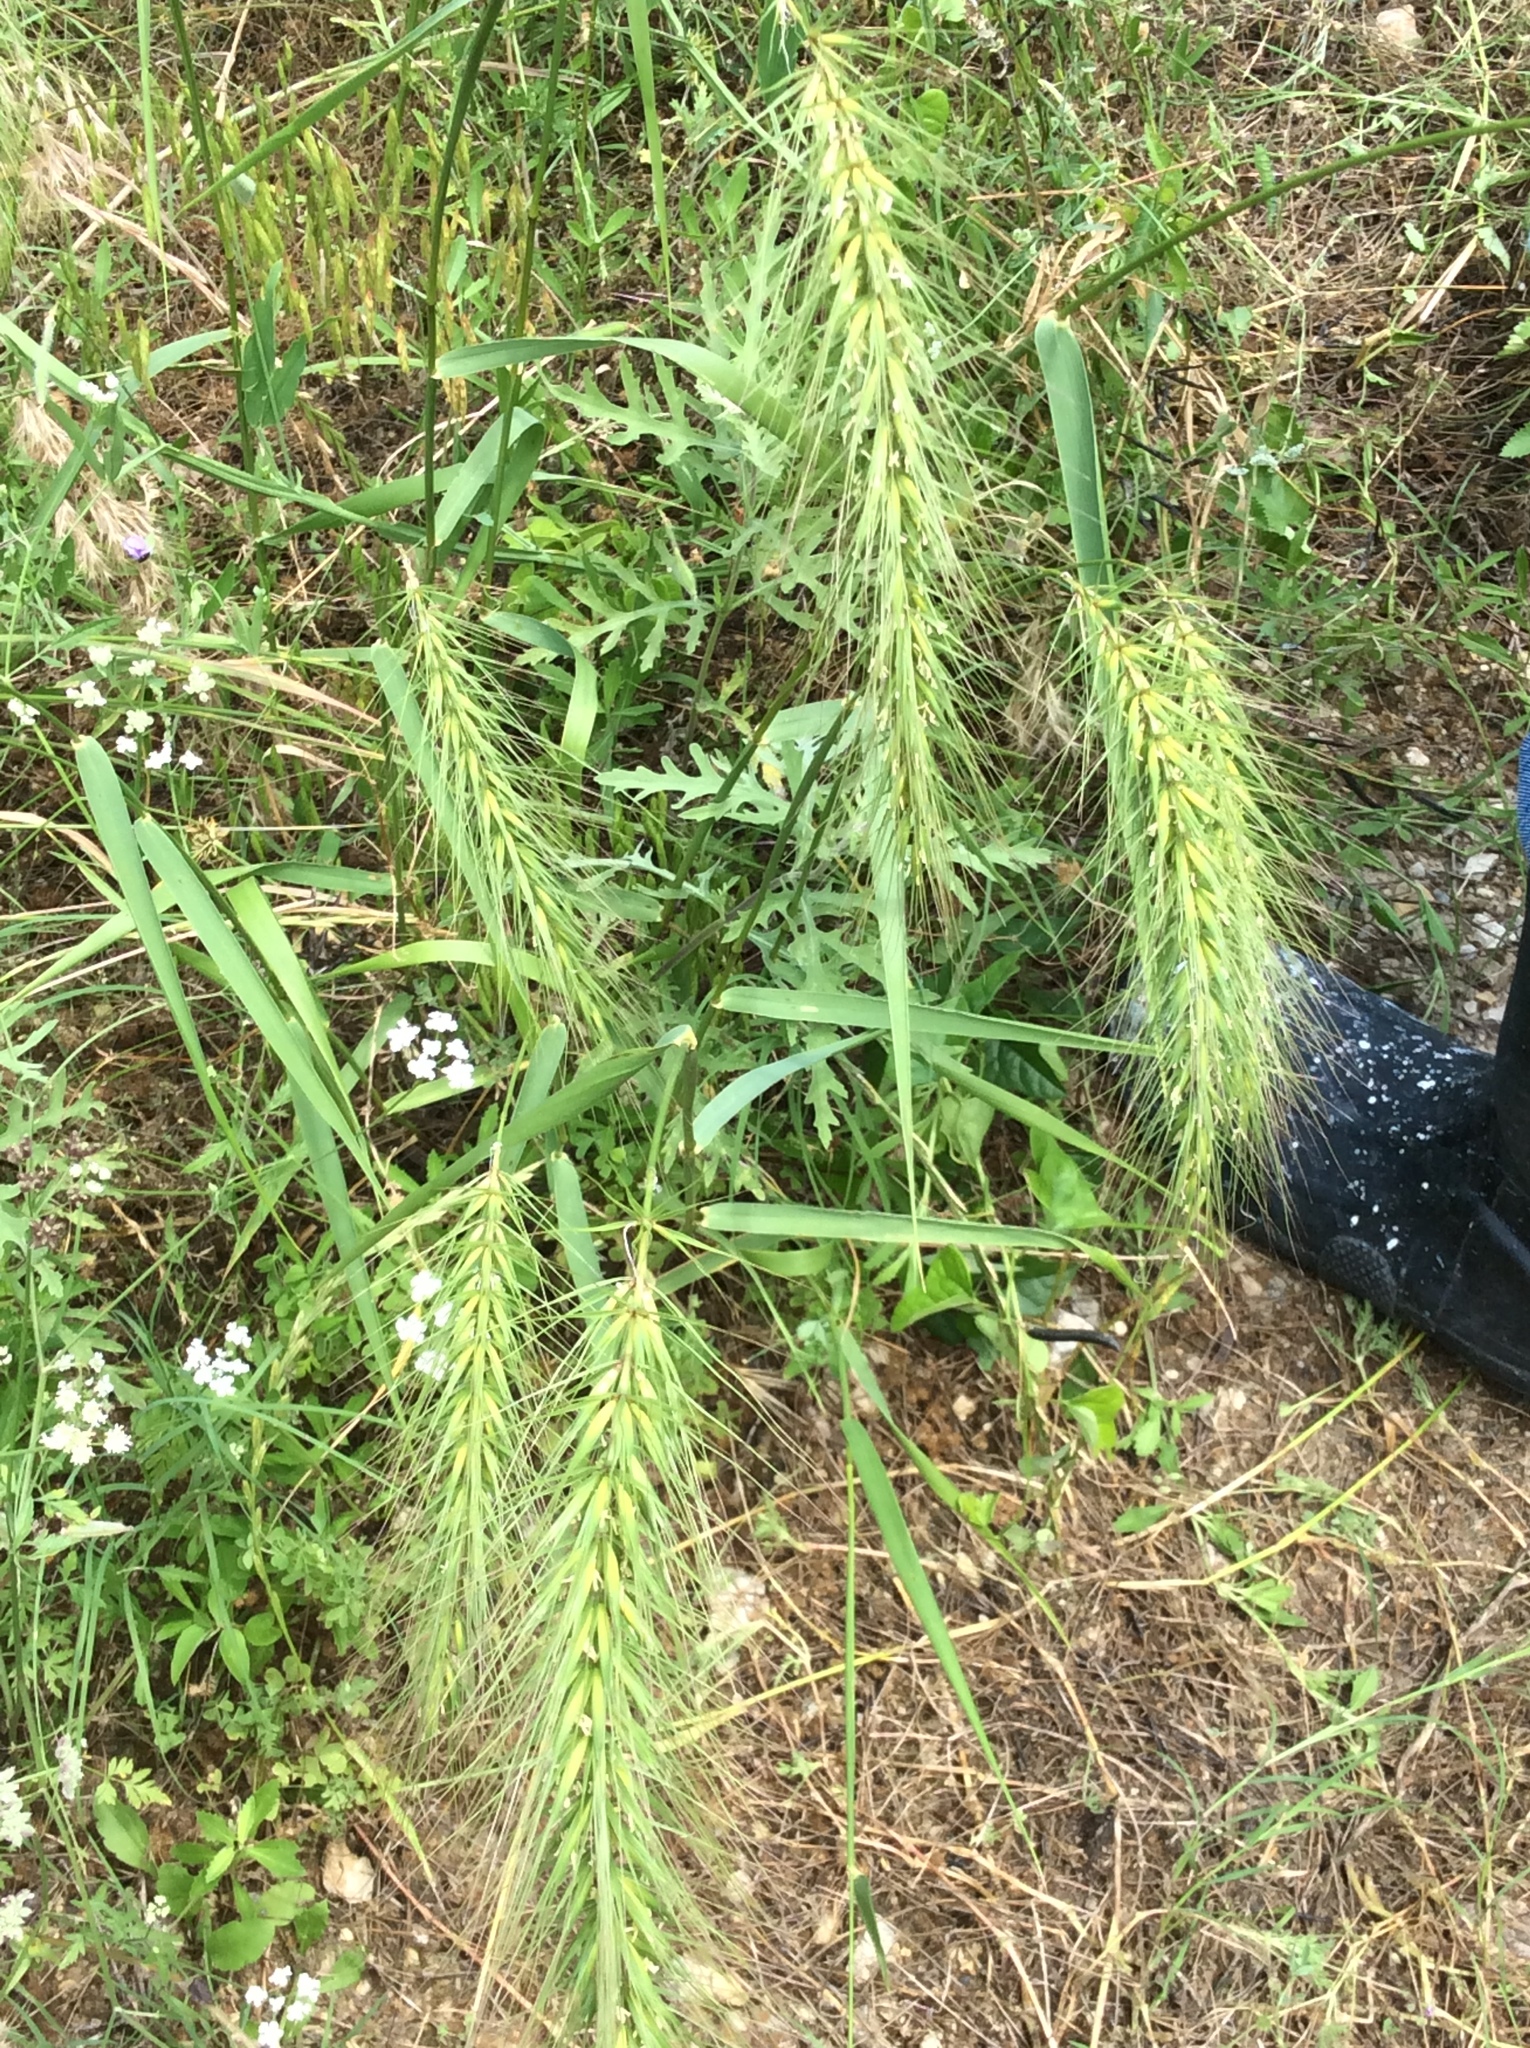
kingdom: Plantae
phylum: Tracheophyta
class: Liliopsida
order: Poales
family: Poaceae
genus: Elymus
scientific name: Elymus canadensis
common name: Canada wild rye
